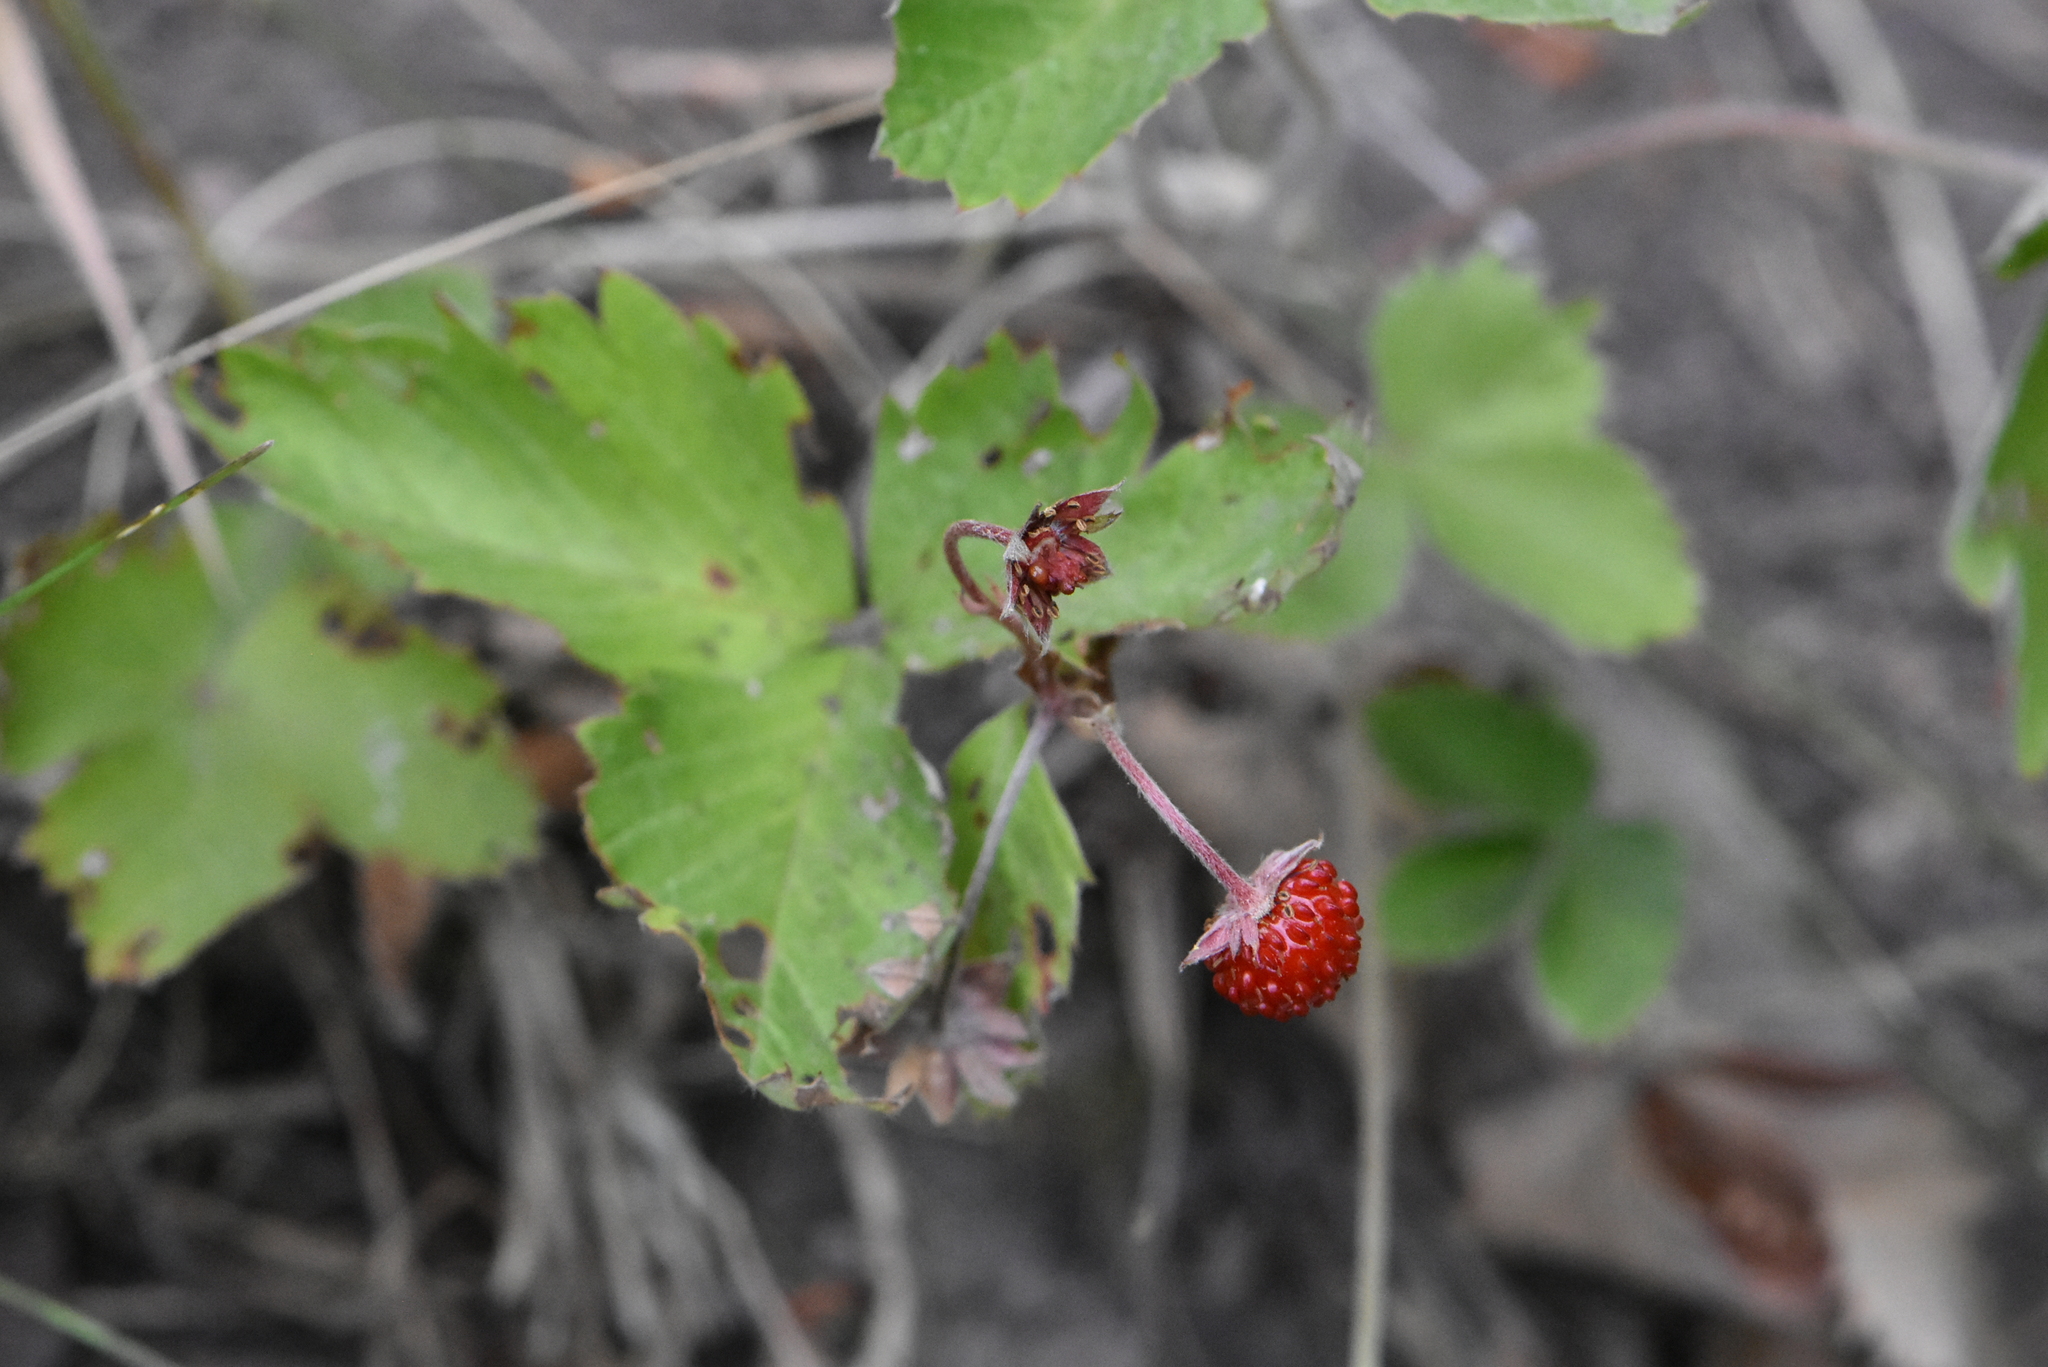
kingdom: Plantae
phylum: Tracheophyta
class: Magnoliopsida
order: Rosales
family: Rosaceae
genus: Fragaria
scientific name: Fragaria vesca
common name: Wild strawberry
